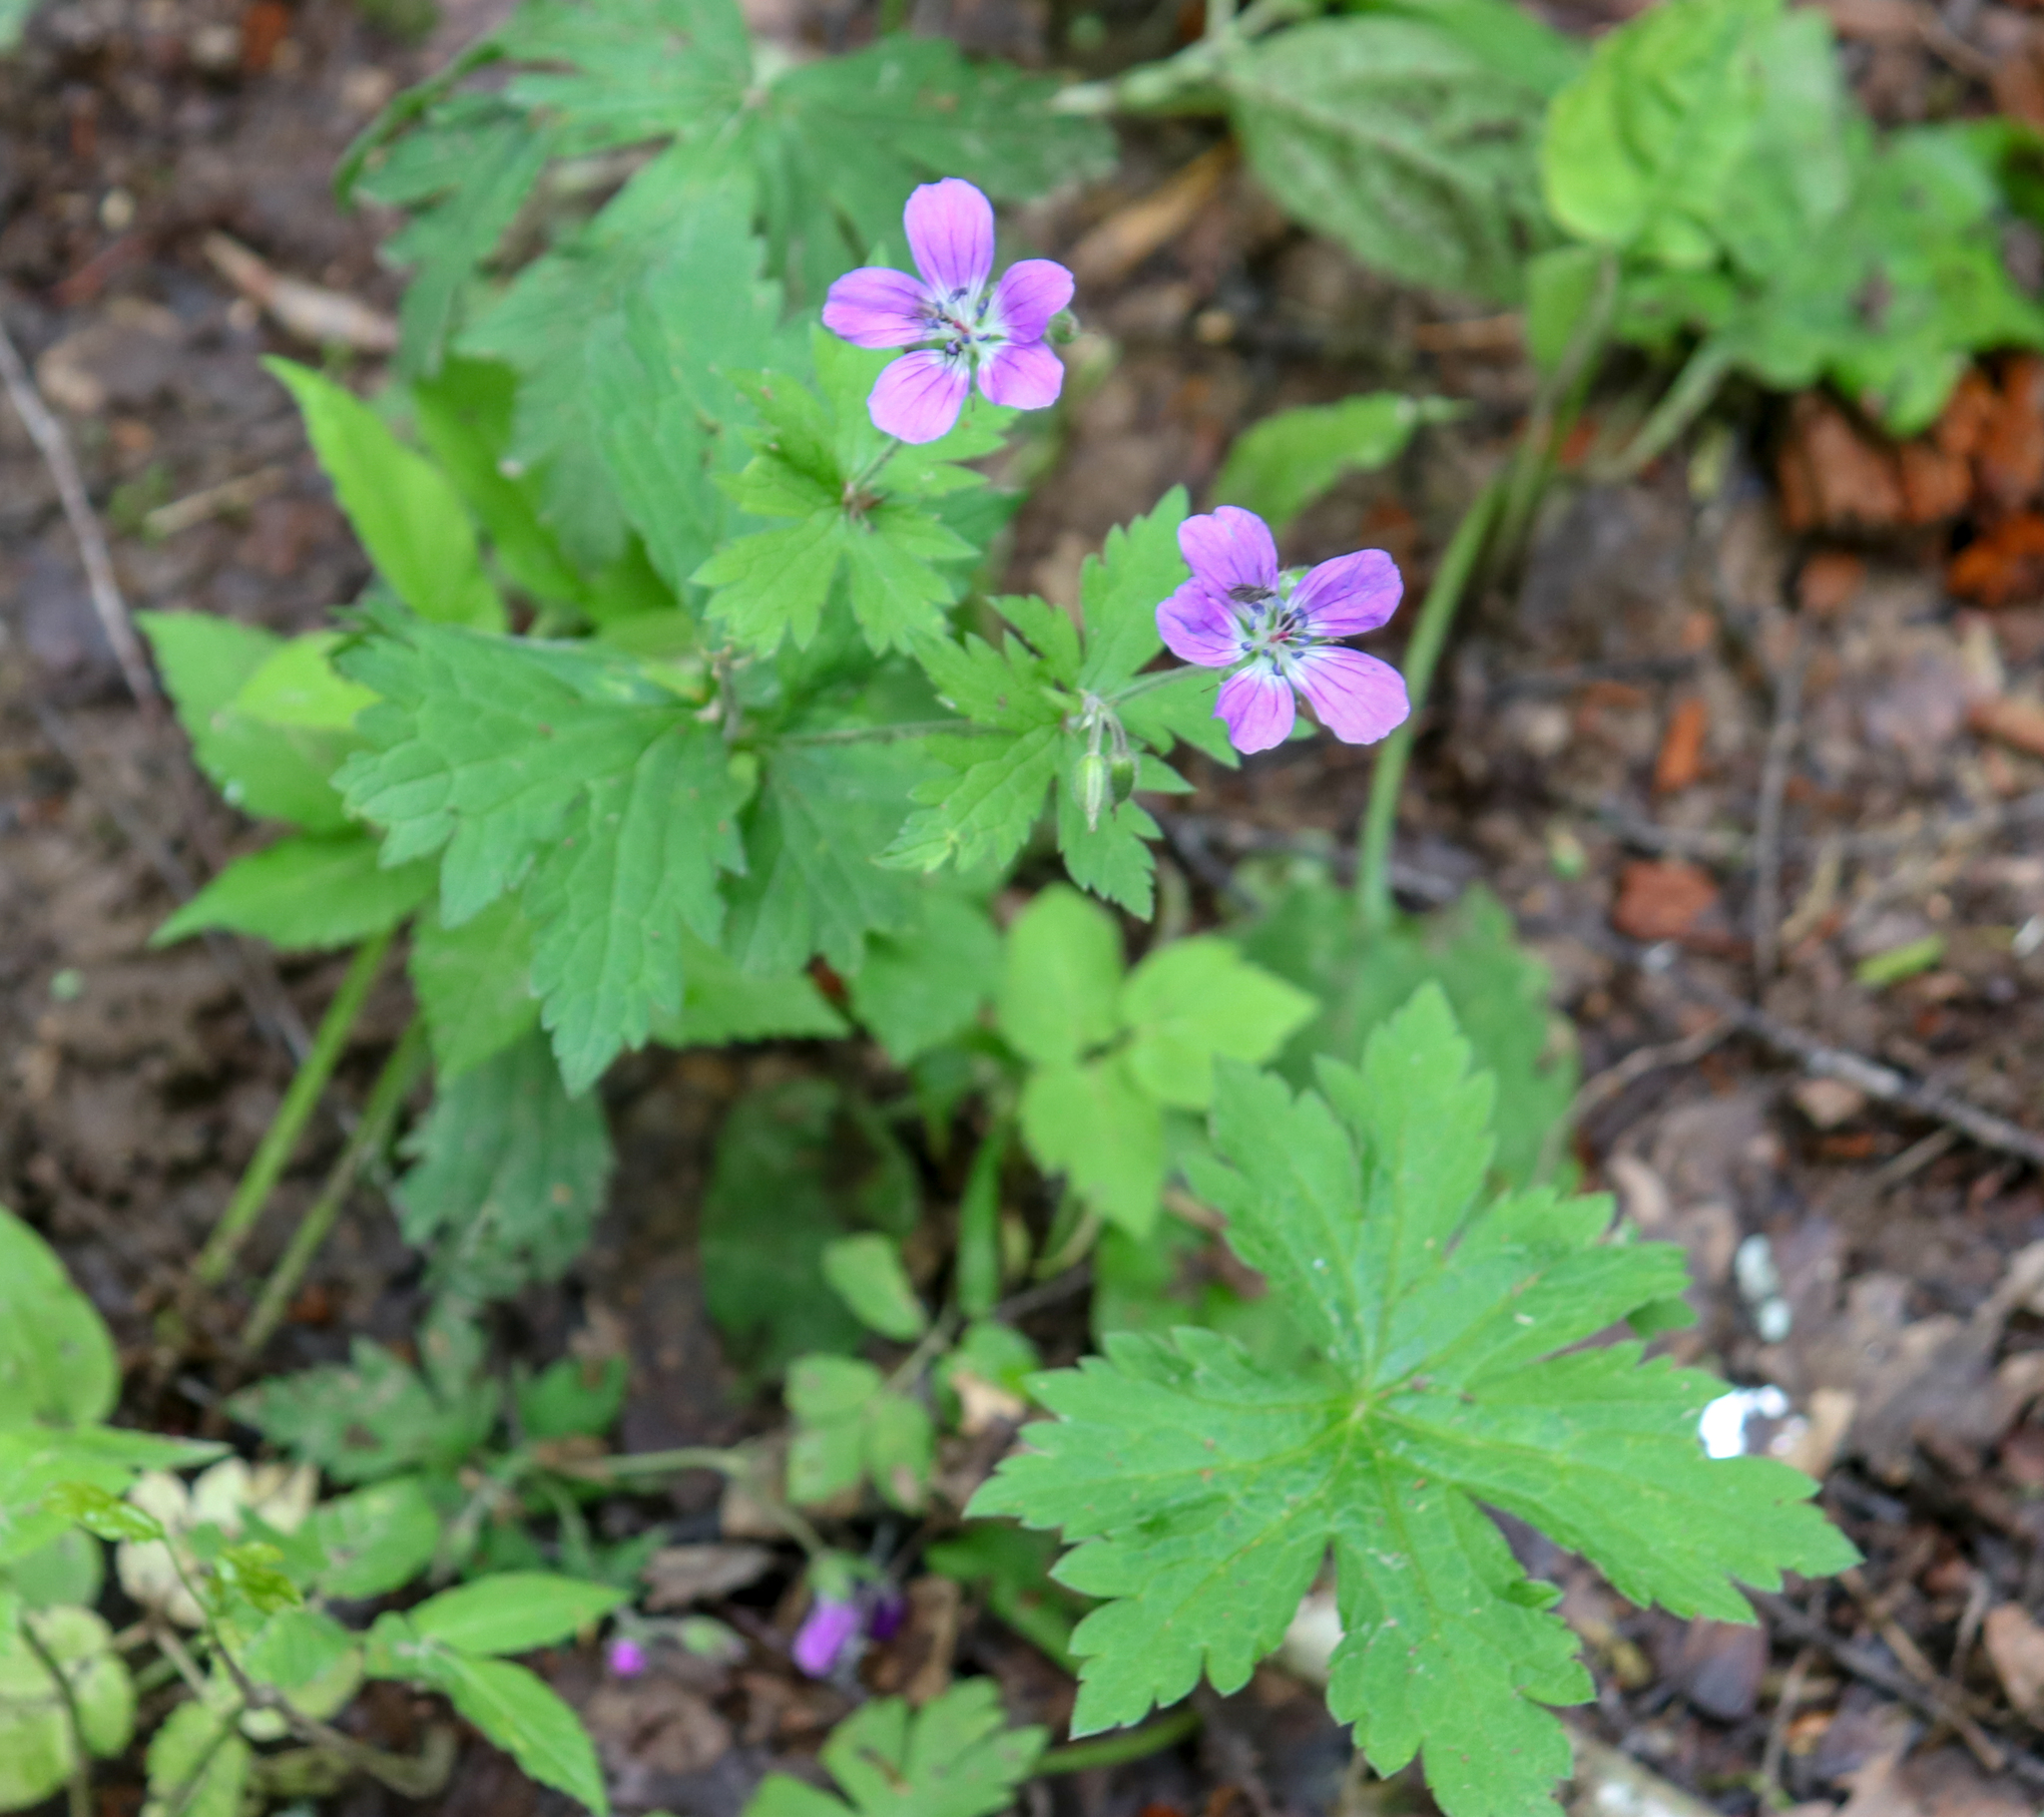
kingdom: Plantae
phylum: Tracheophyta
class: Magnoliopsida
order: Geraniales
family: Geraniaceae
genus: Geranium
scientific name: Geranium sylvaticum
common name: Wood crane's-bill
